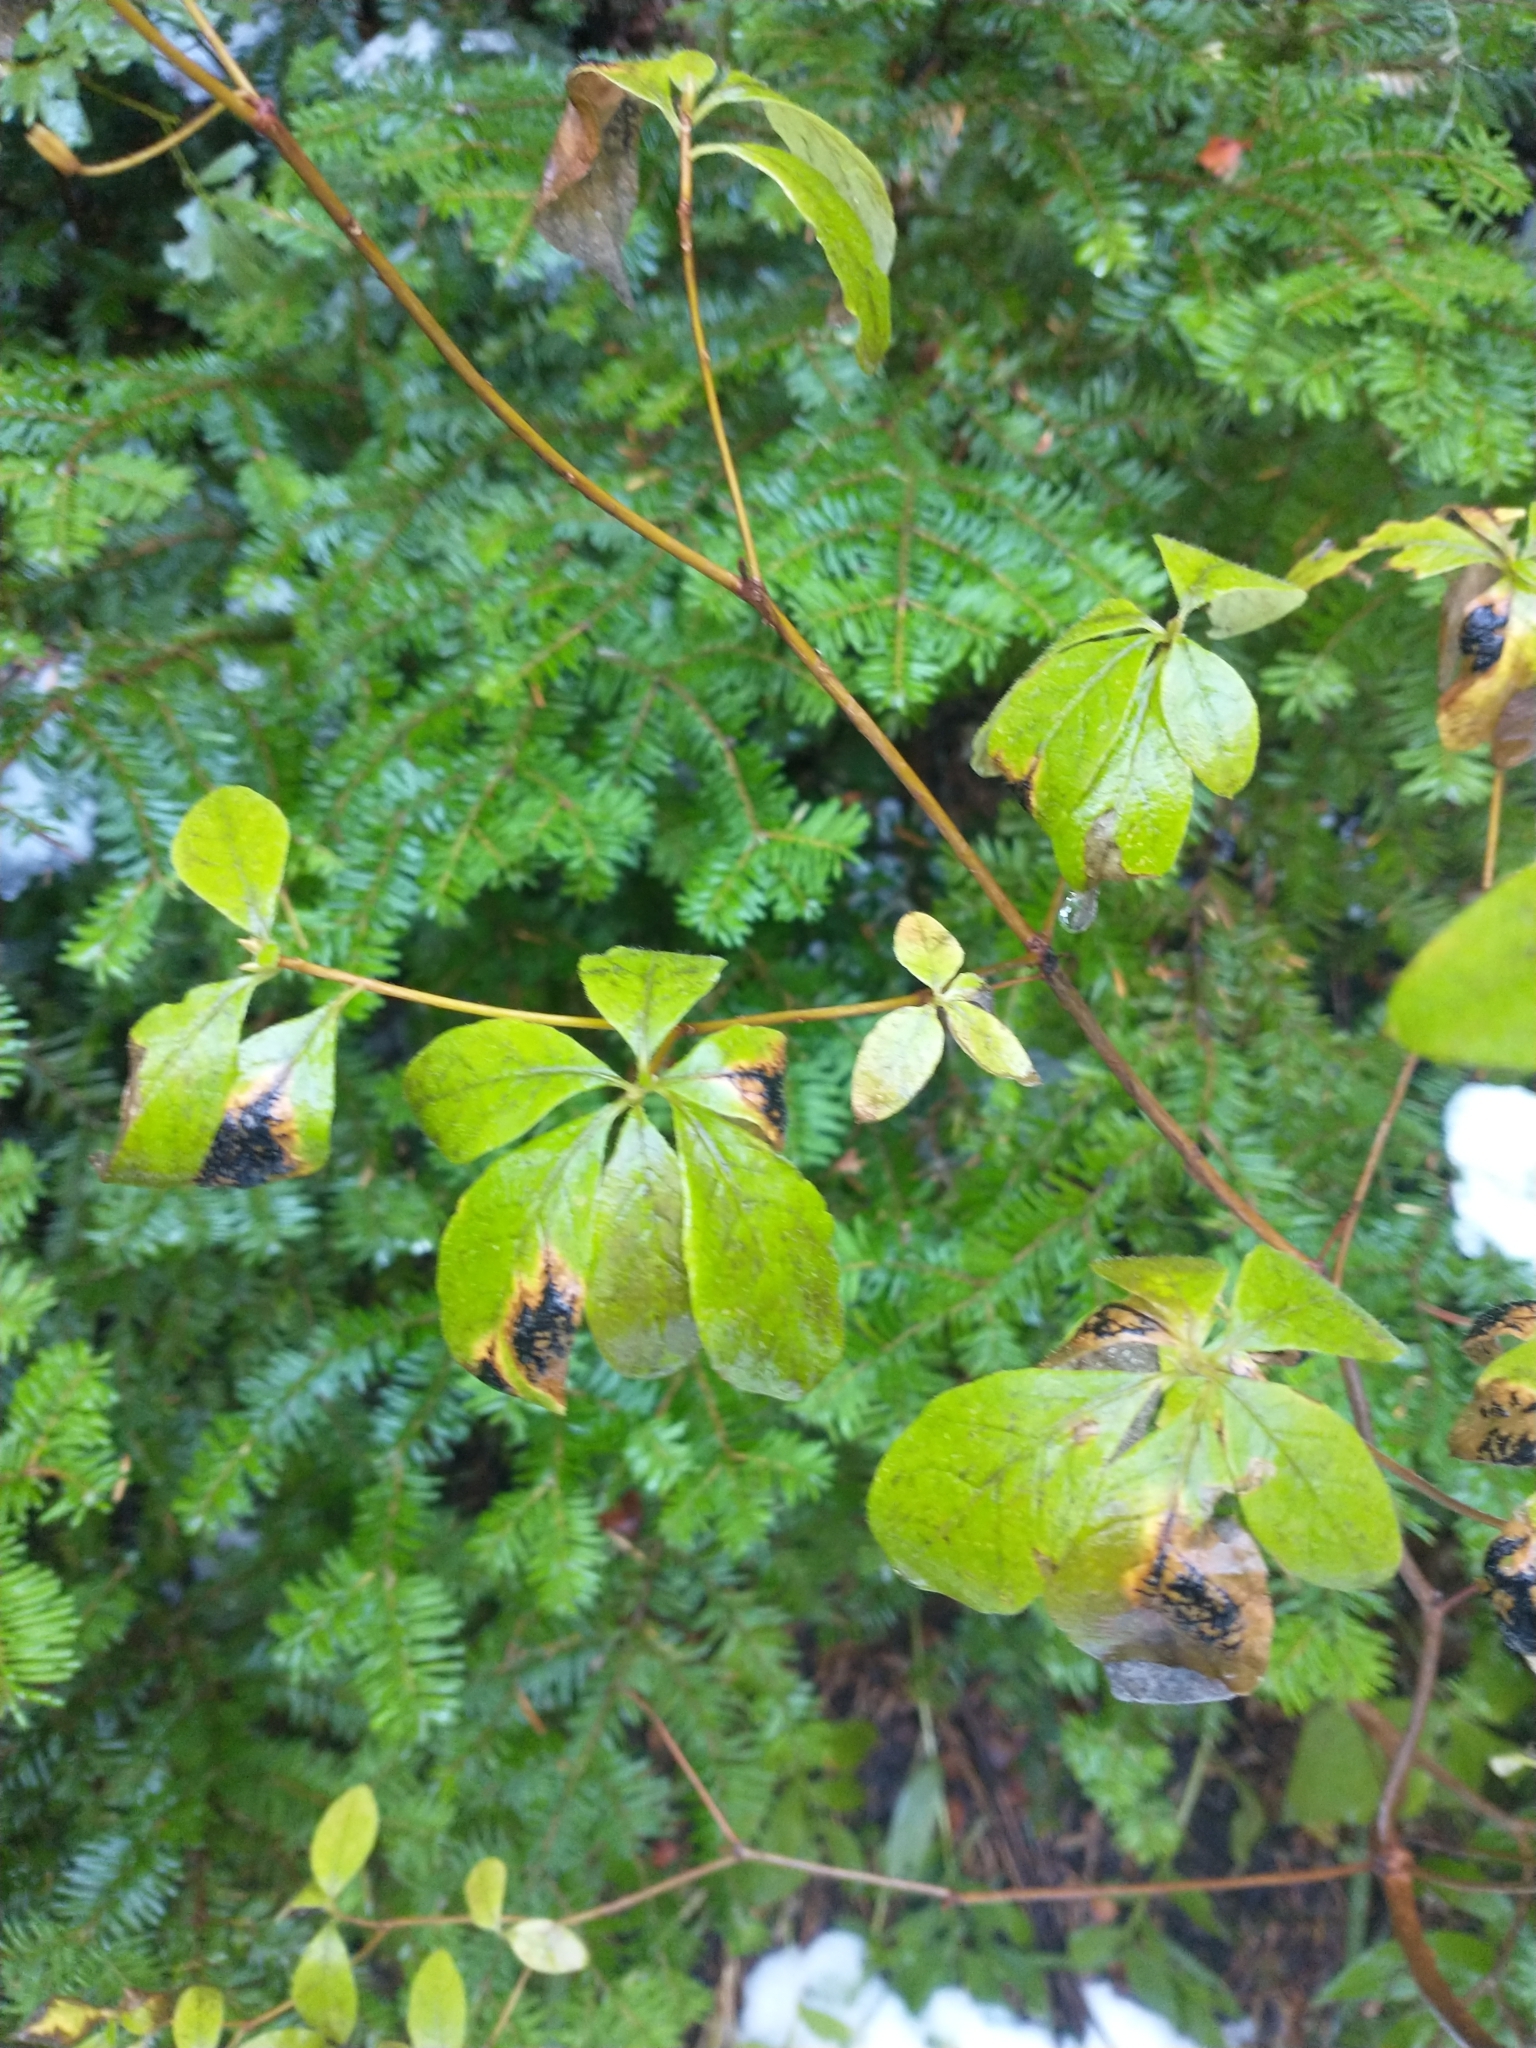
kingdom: Plantae
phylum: Tracheophyta
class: Magnoliopsida
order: Ericales
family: Ericaceae
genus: Rhododendron
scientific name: Rhododendron menziesii
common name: Pacific menziesia
